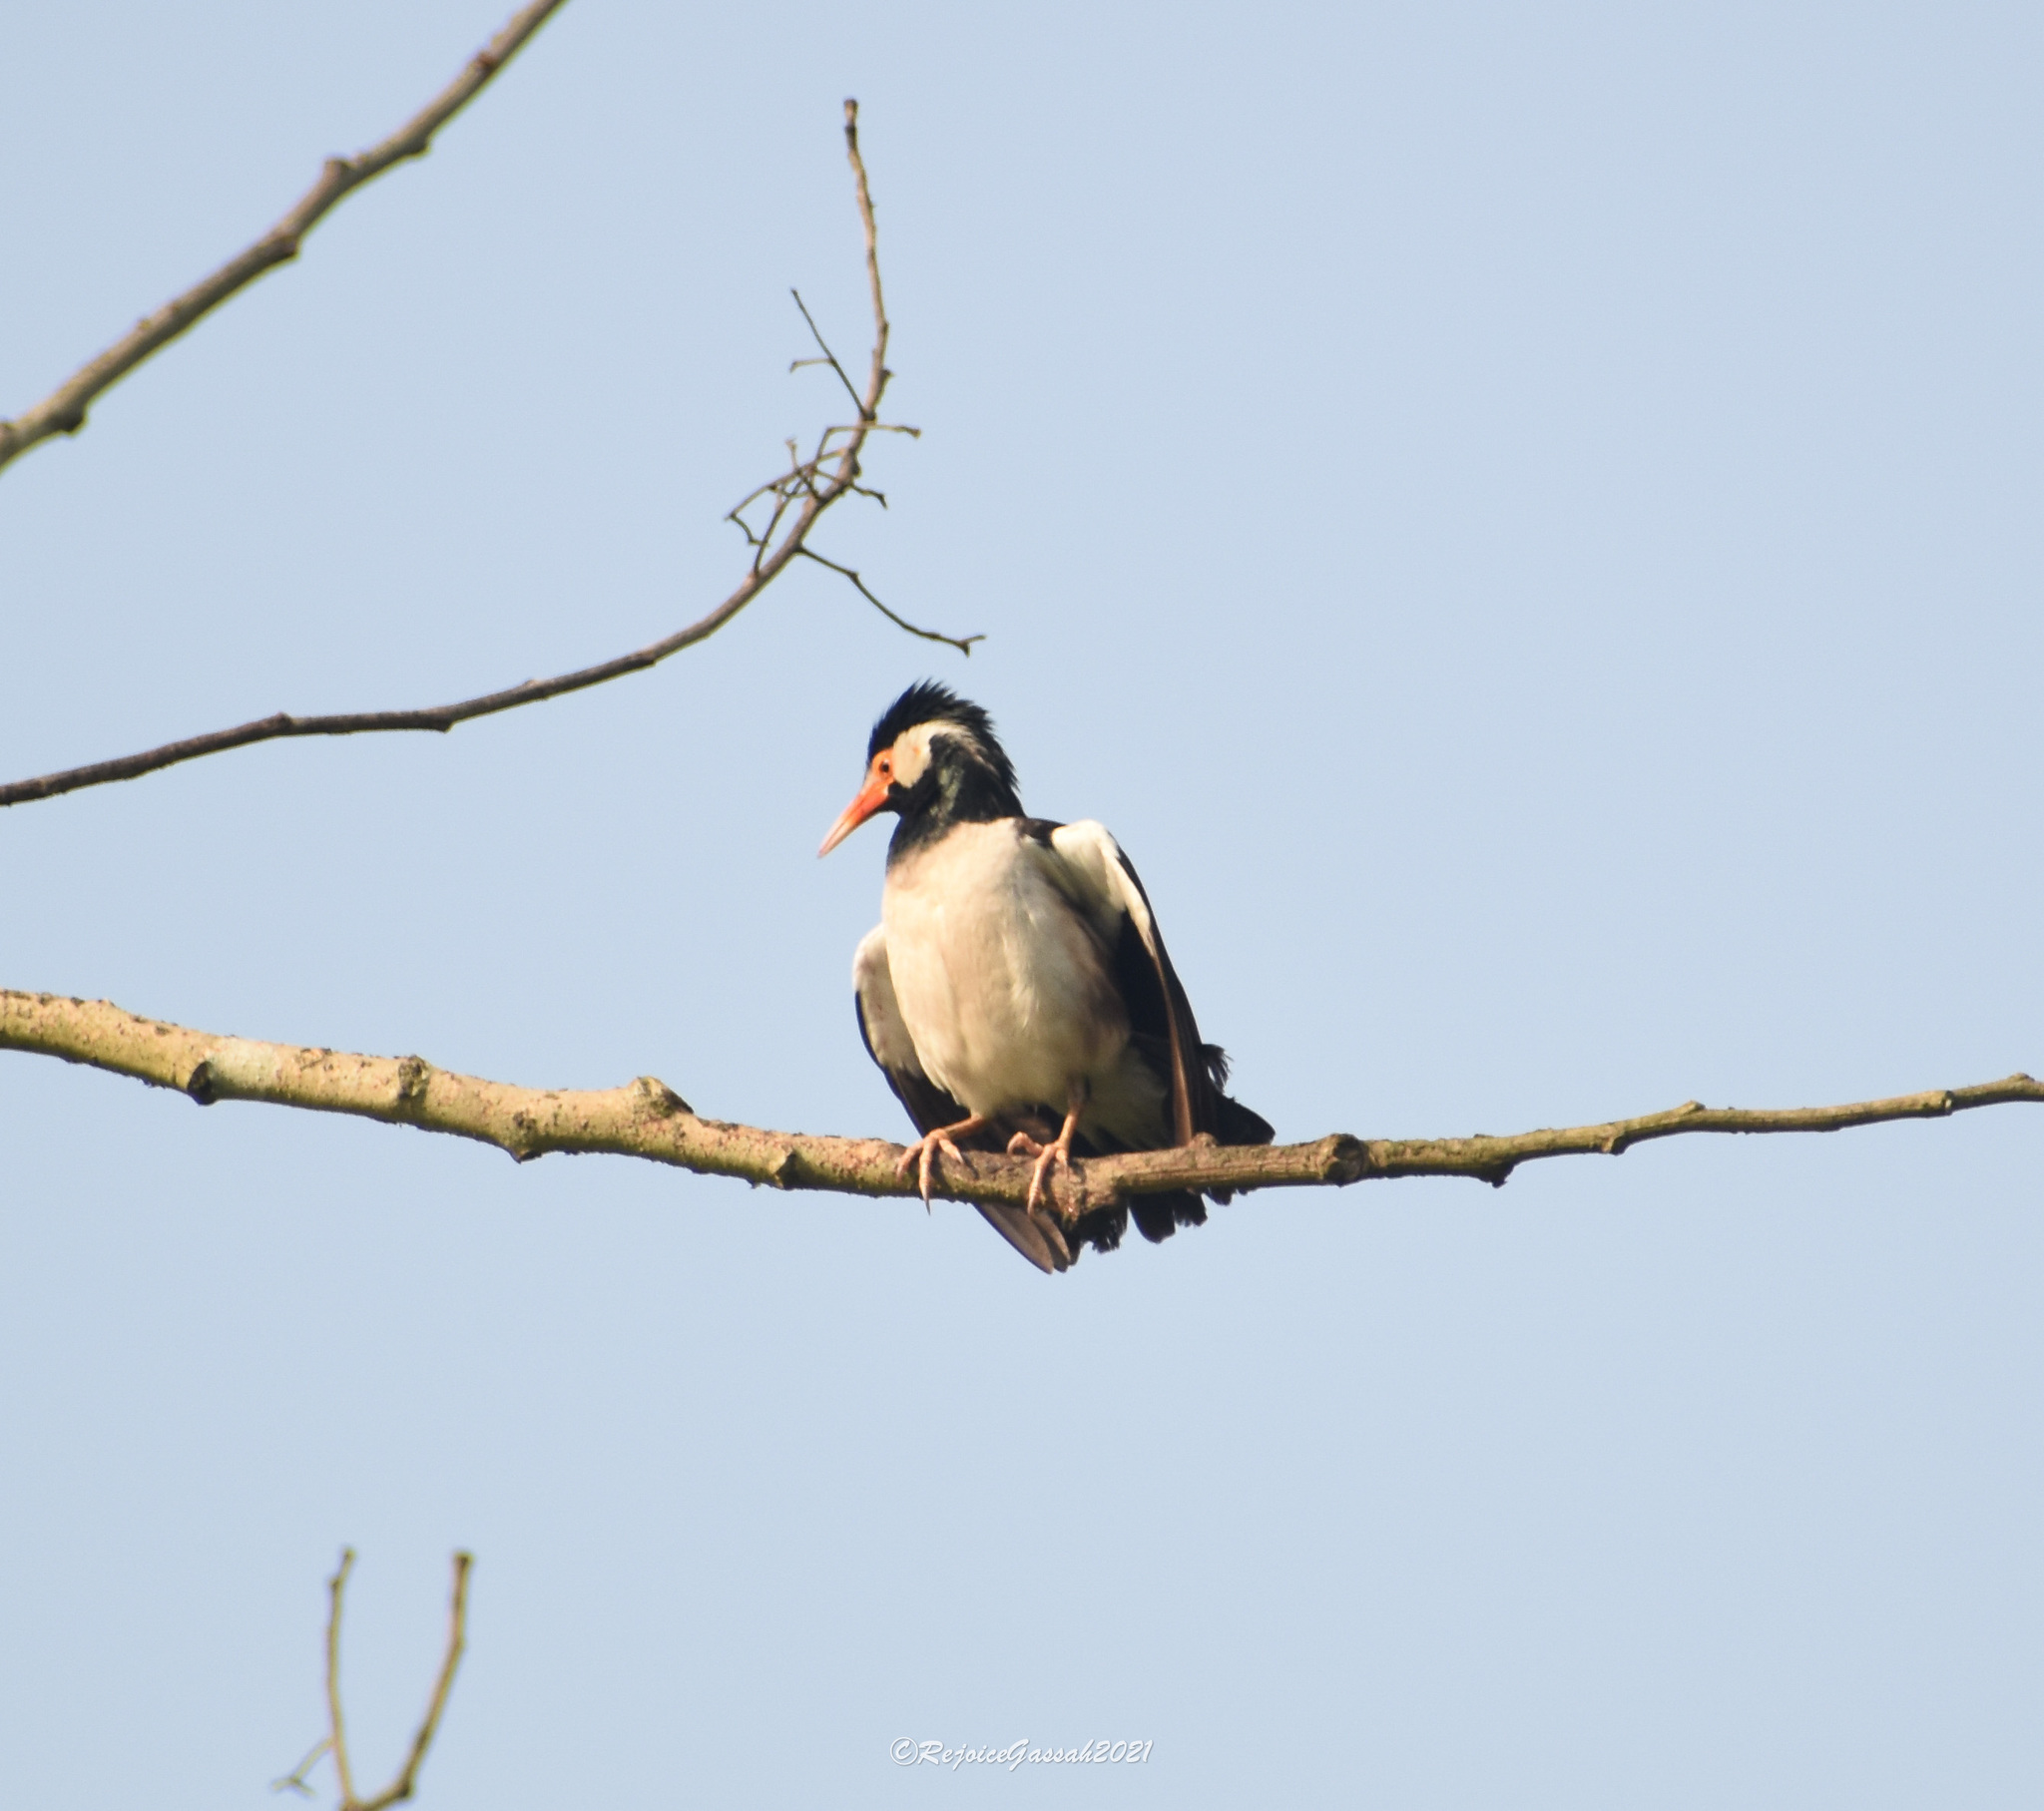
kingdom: Animalia
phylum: Chordata
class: Aves
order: Passeriformes
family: Sturnidae
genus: Gracupica
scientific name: Gracupica contra
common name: Pied myna
